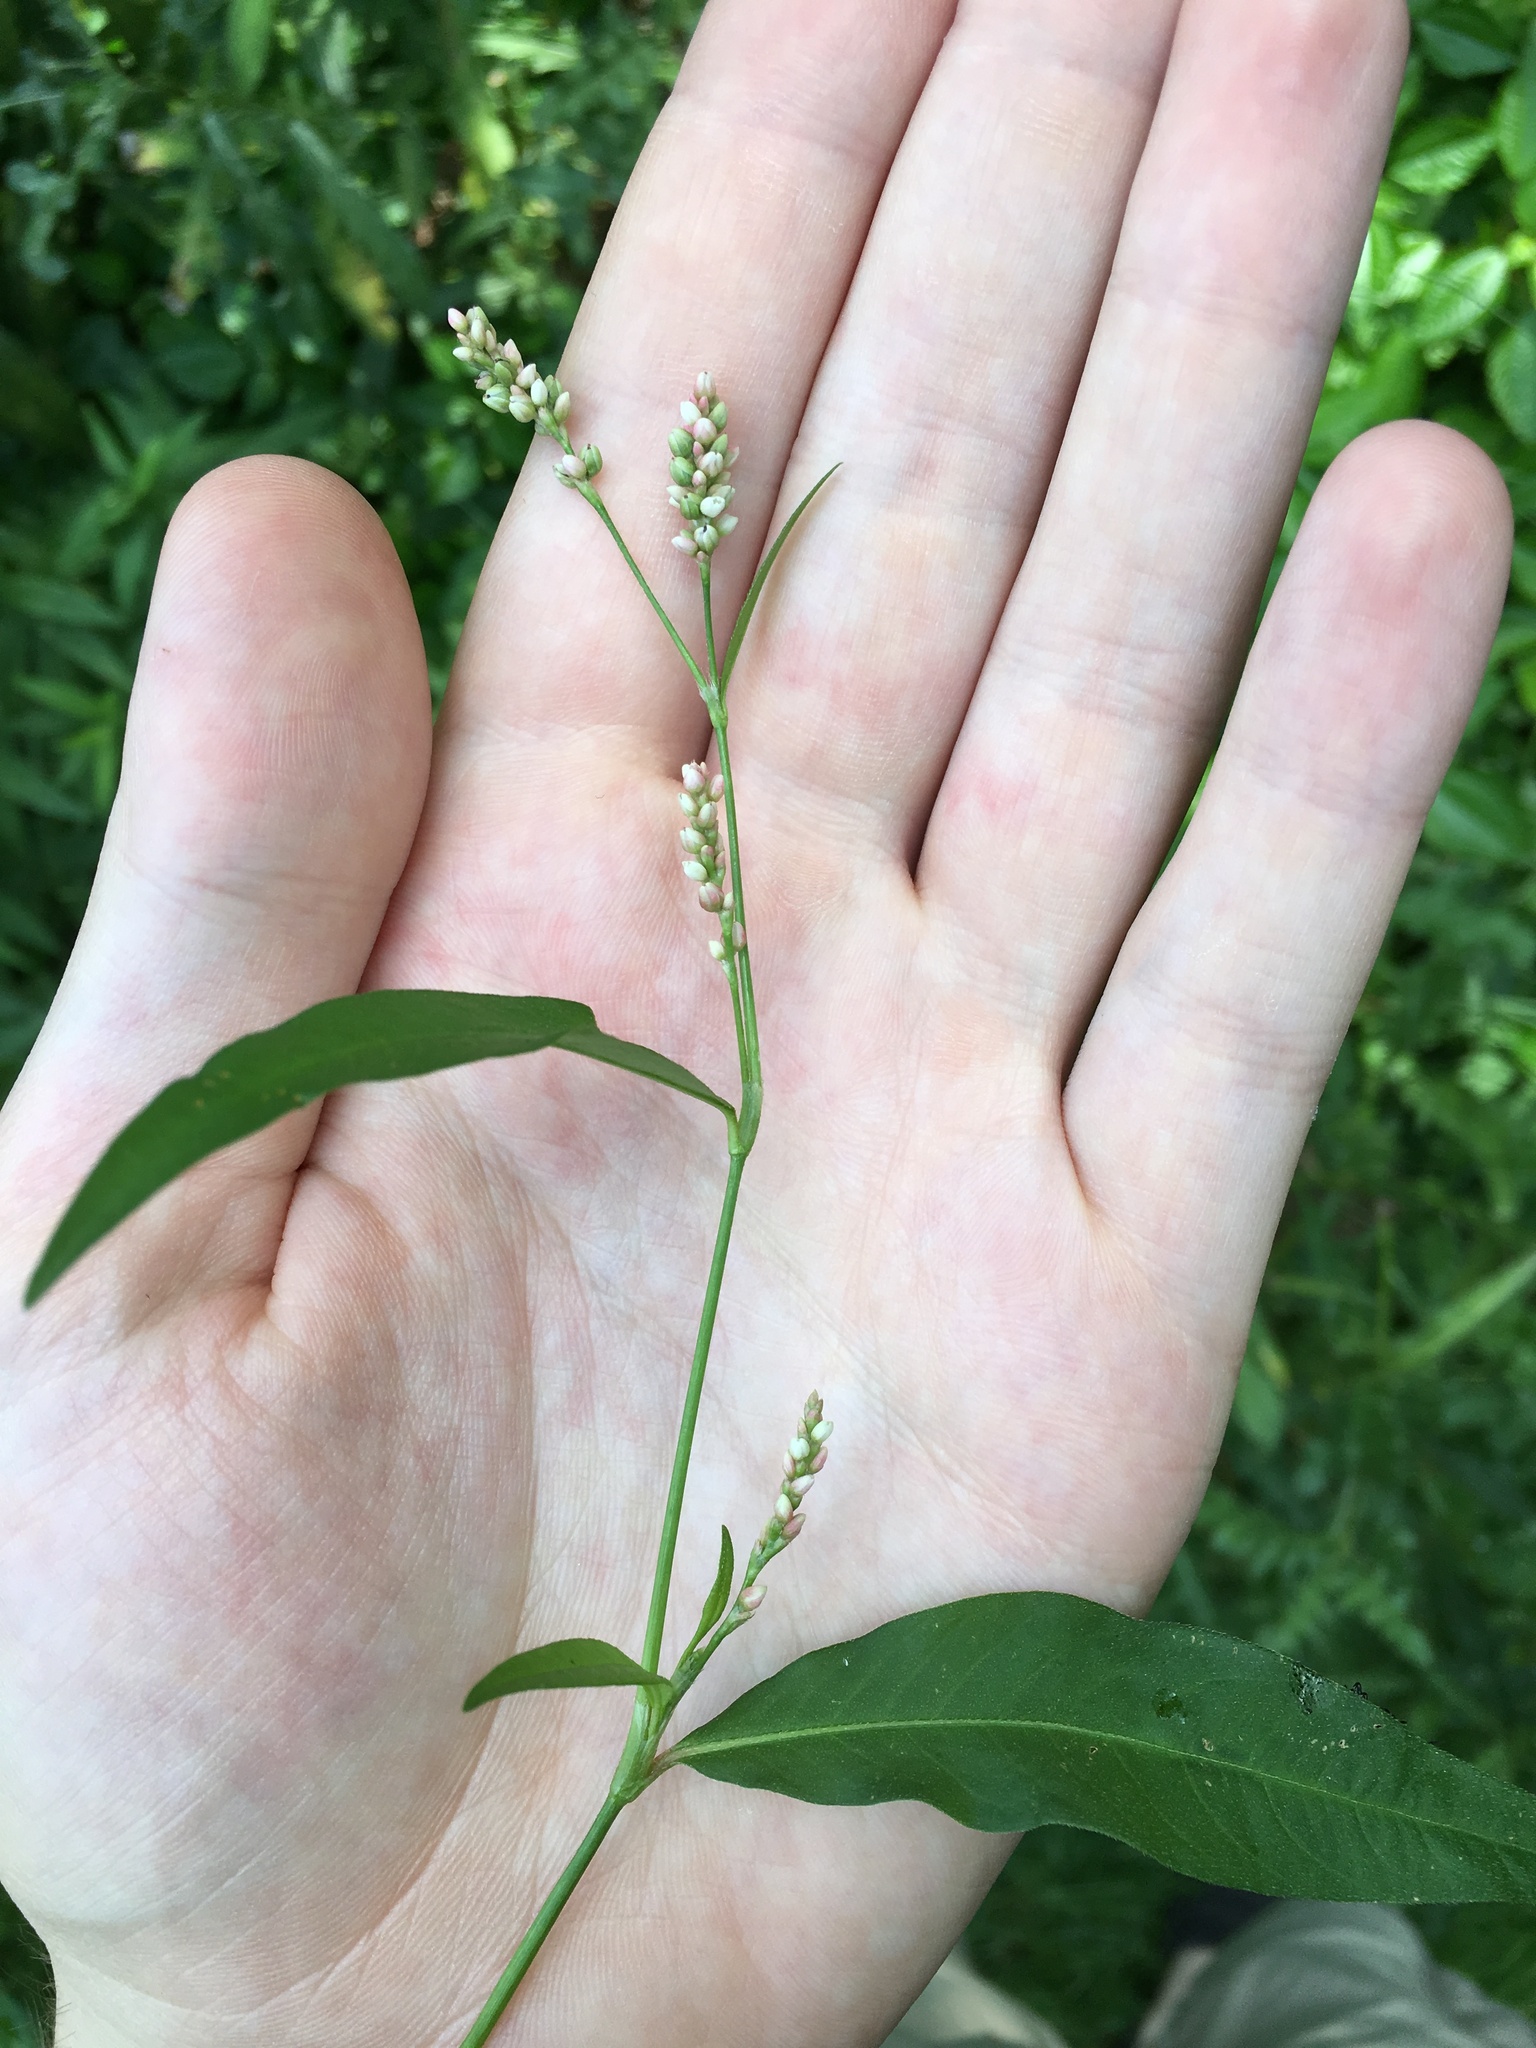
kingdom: Plantae
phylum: Tracheophyta
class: Magnoliopsida
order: Caryophyllales
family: Polygonaceae
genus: Persicaria
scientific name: Persicaria pensylvanica
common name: Pinkweed
